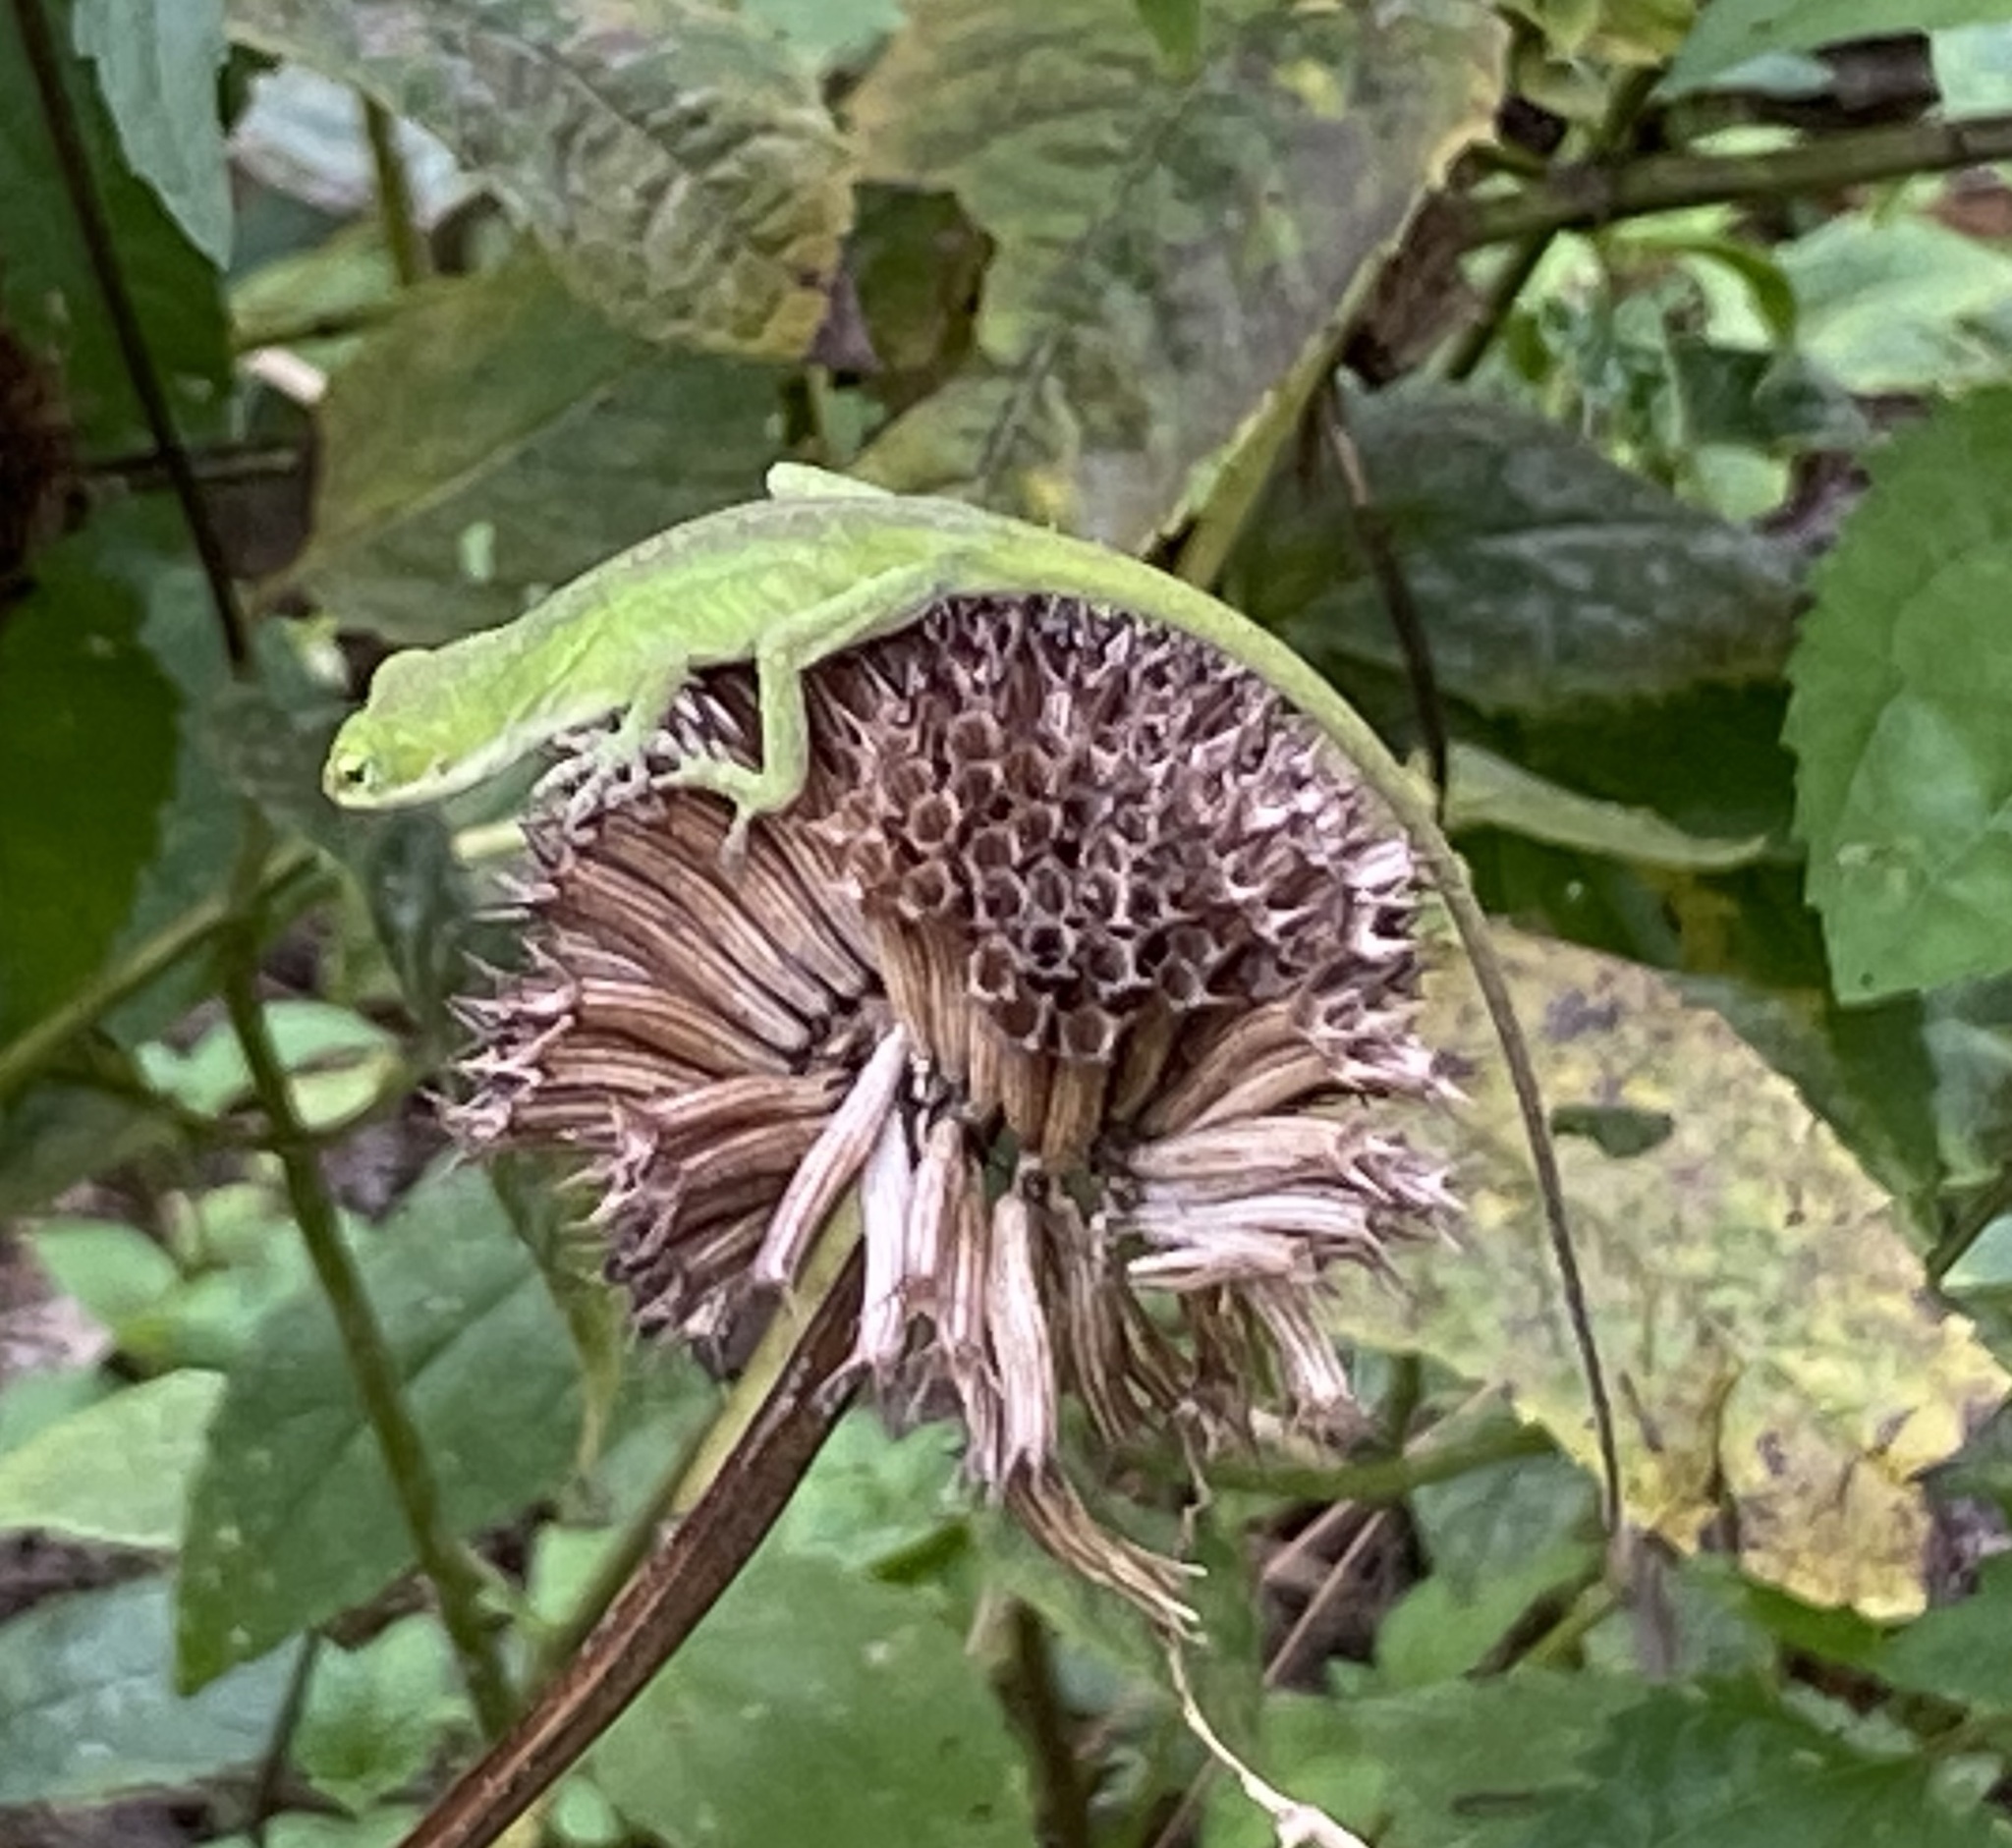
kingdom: Animalia
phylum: Chordata
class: Squamata
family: Dactyloidae
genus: Anolis
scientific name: Anolis carolinensis
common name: Green anole
